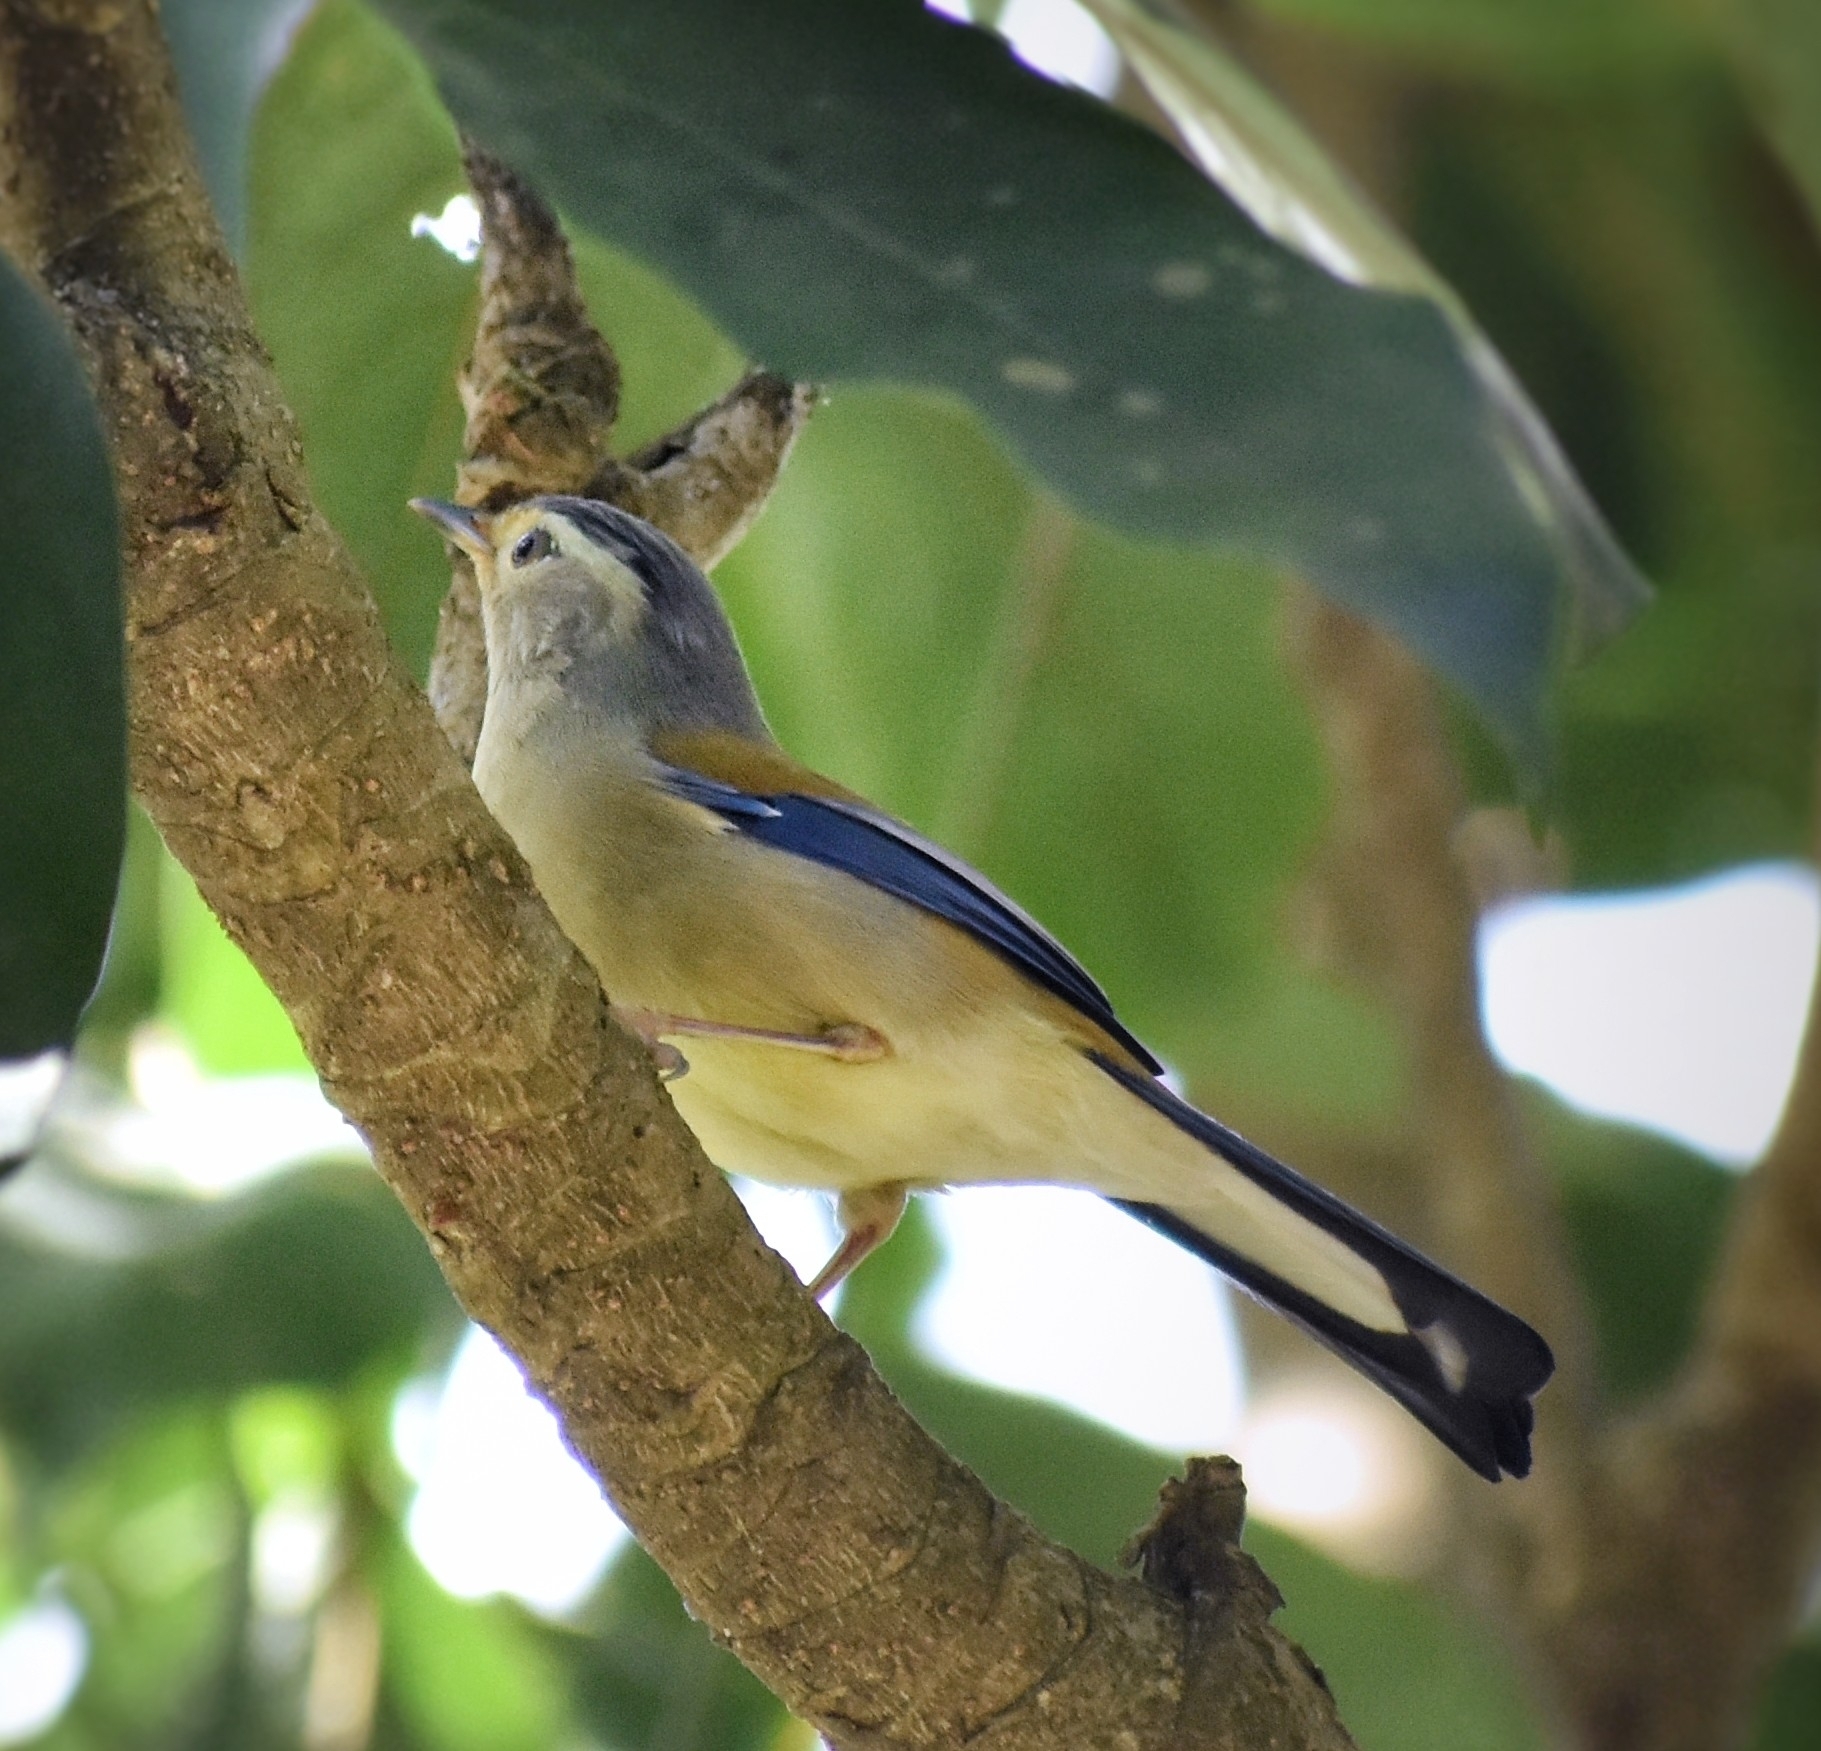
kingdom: Animalia
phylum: Chordata
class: Aves
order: Passeriformes
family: Leiothrichidae
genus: Minla
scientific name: Minla cyanouroptera
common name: Blue-winged minla
